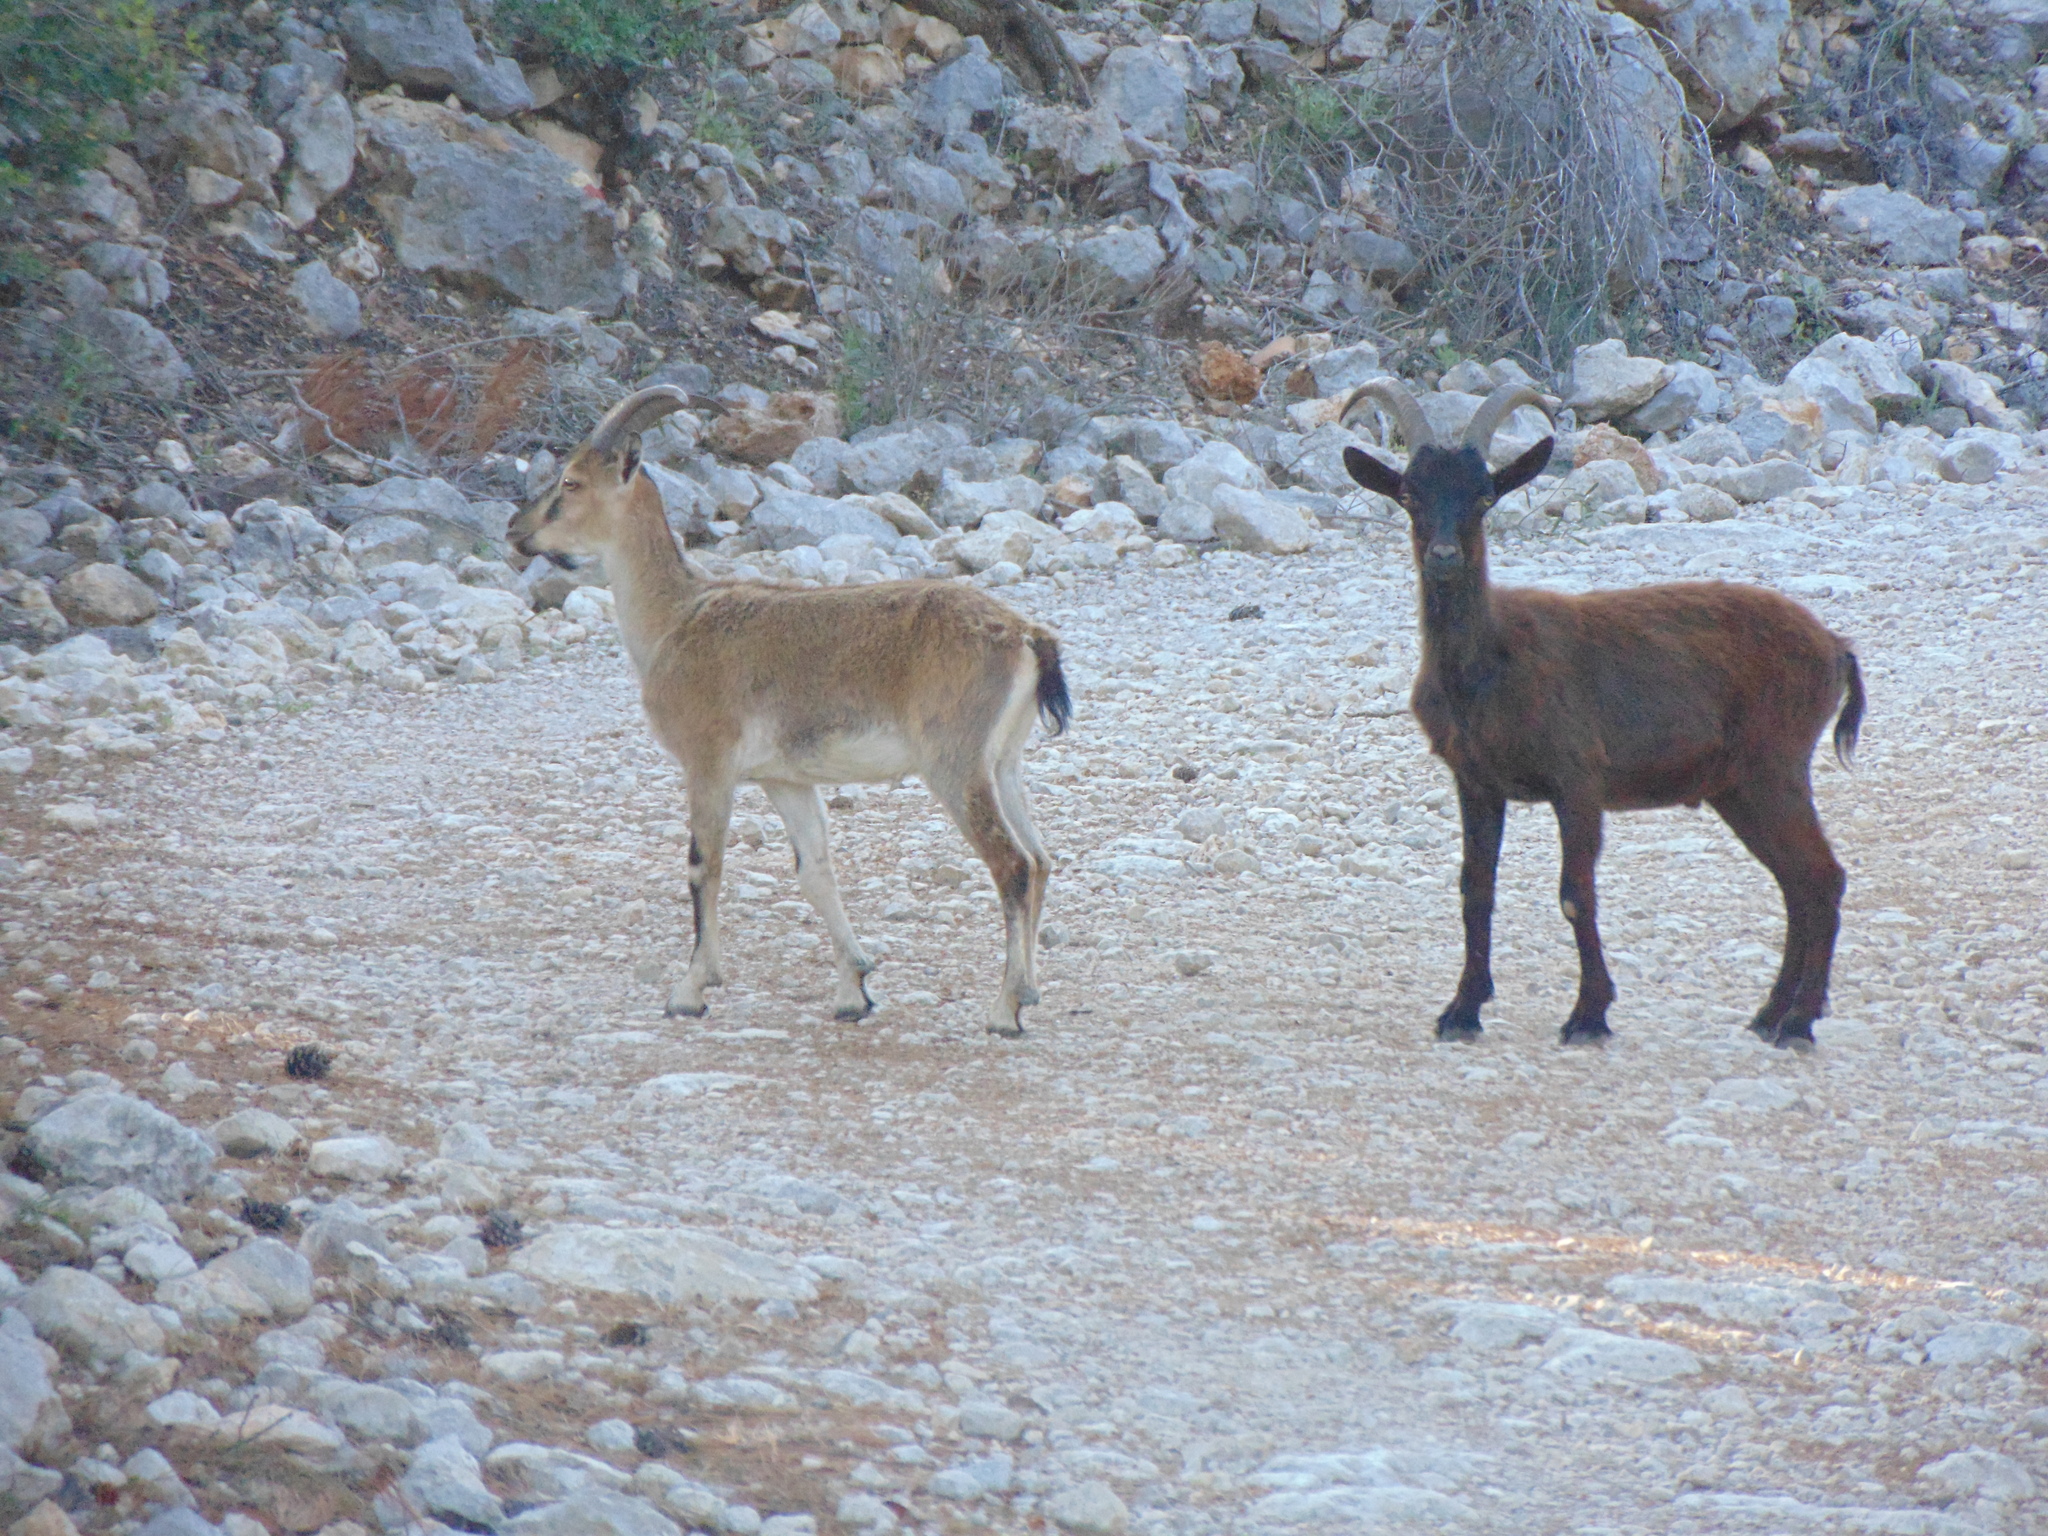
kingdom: Animalia
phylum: Chordata
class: Mammalia
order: Artiodactyla
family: Bovidae
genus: Capra
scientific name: Capra hircus
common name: Domestic goat
